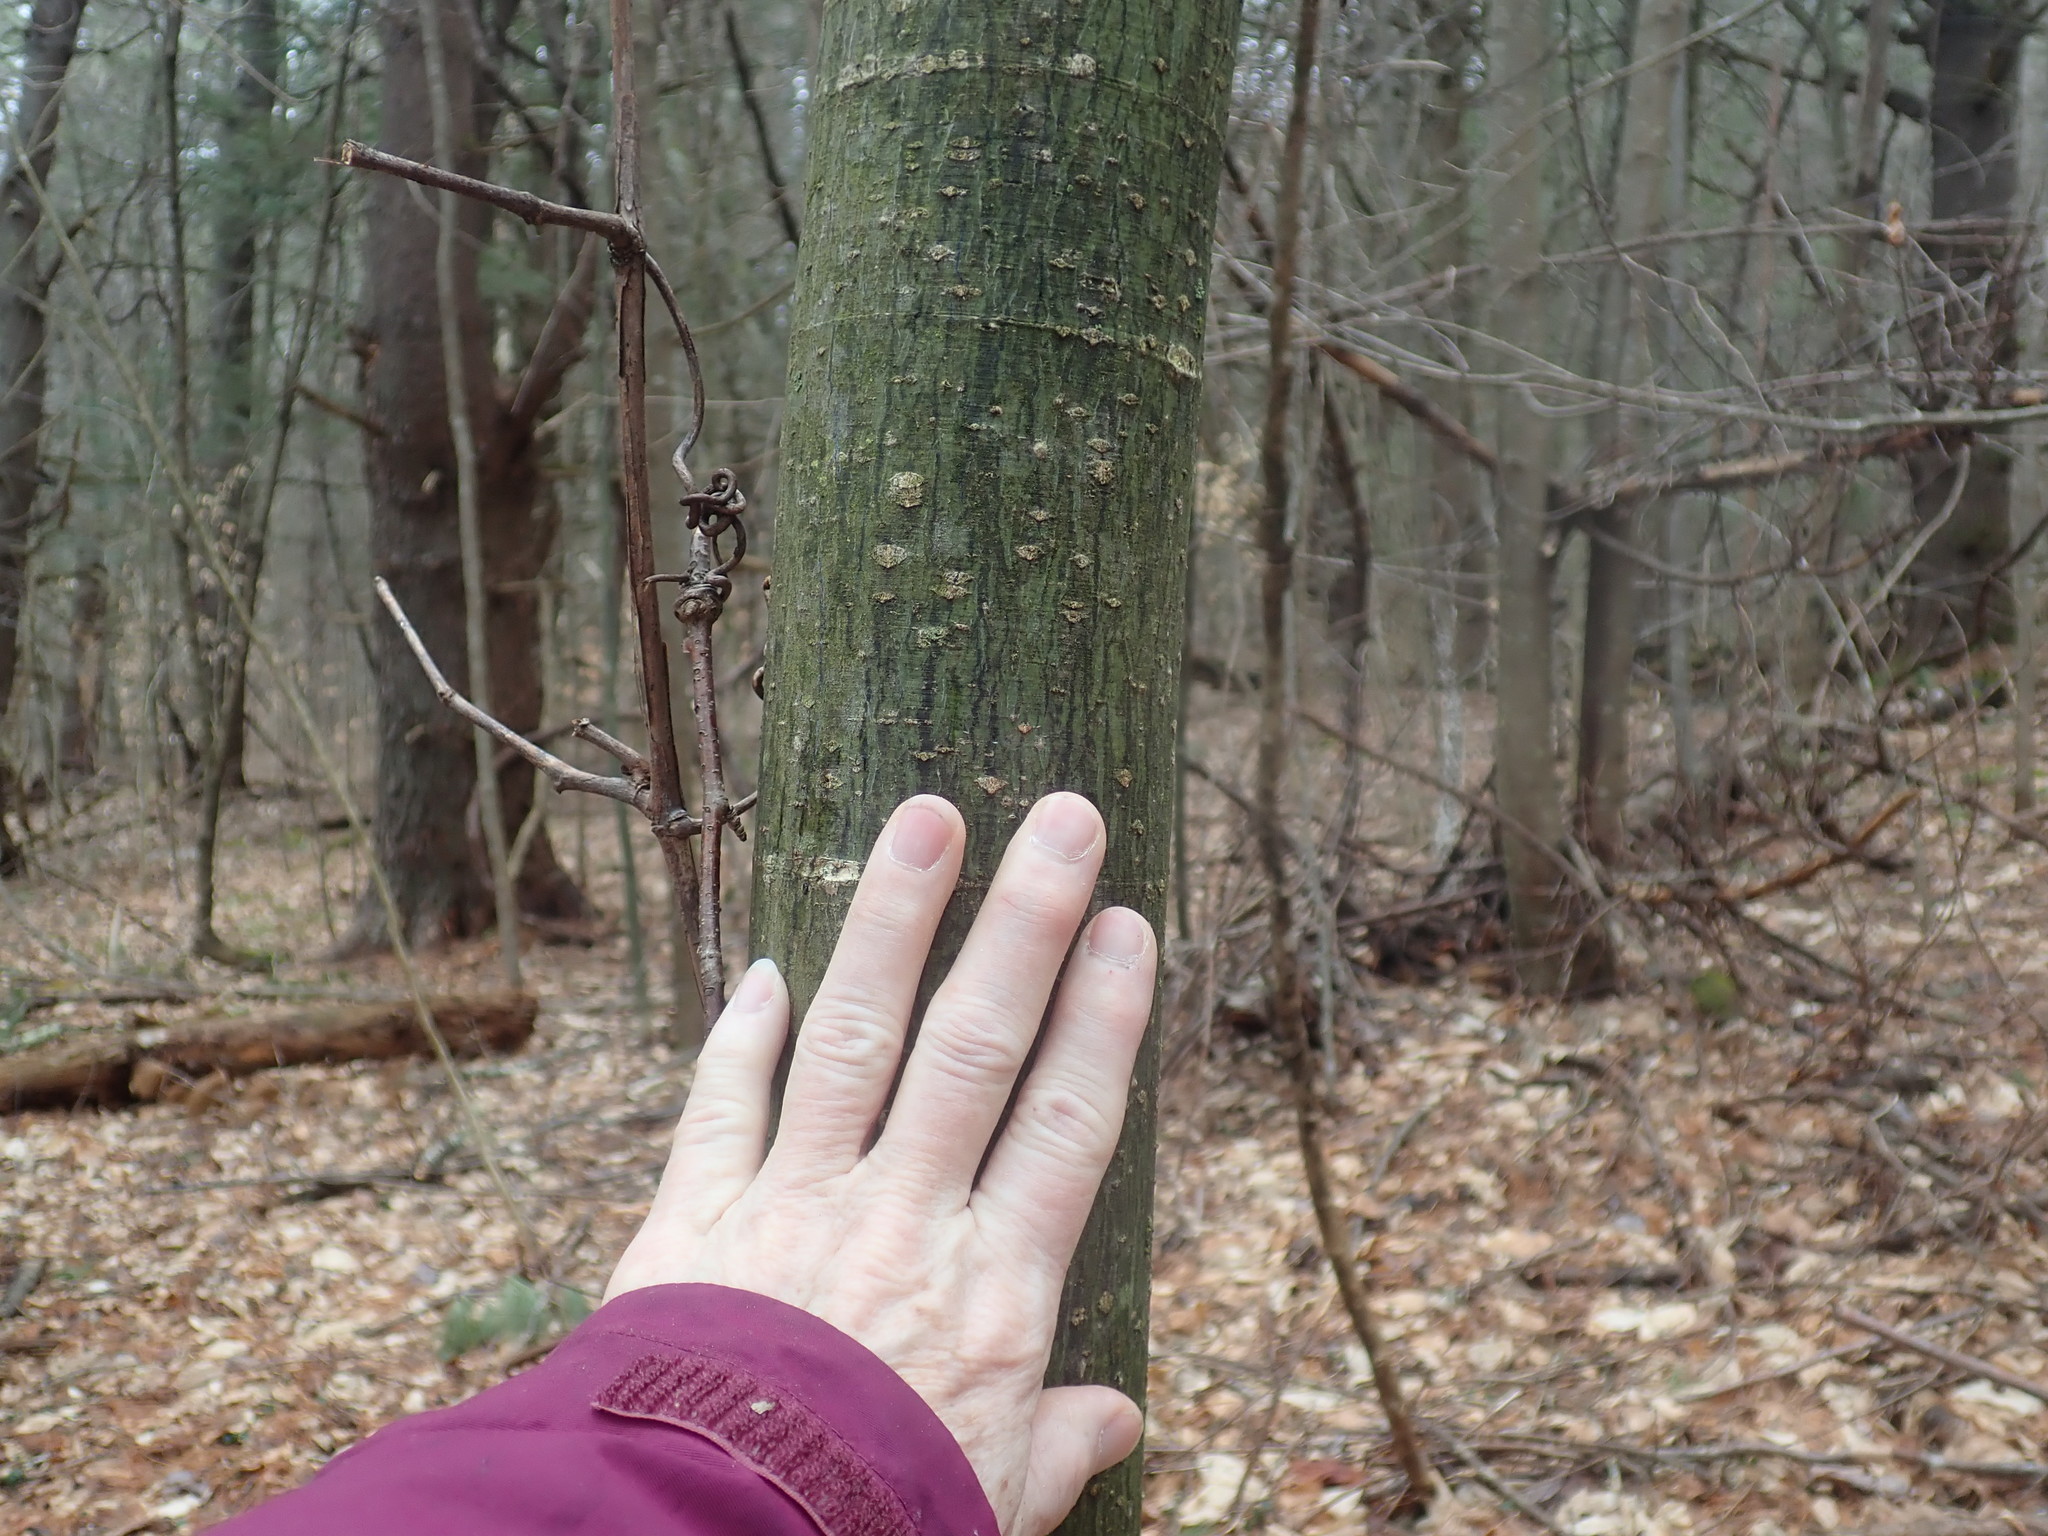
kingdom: Plantae
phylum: Tracheophyta
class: Magnoliopsida
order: Sapindales
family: Sapindaceae
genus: Acer
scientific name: Acer pensylvanicum
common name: Moosewood
